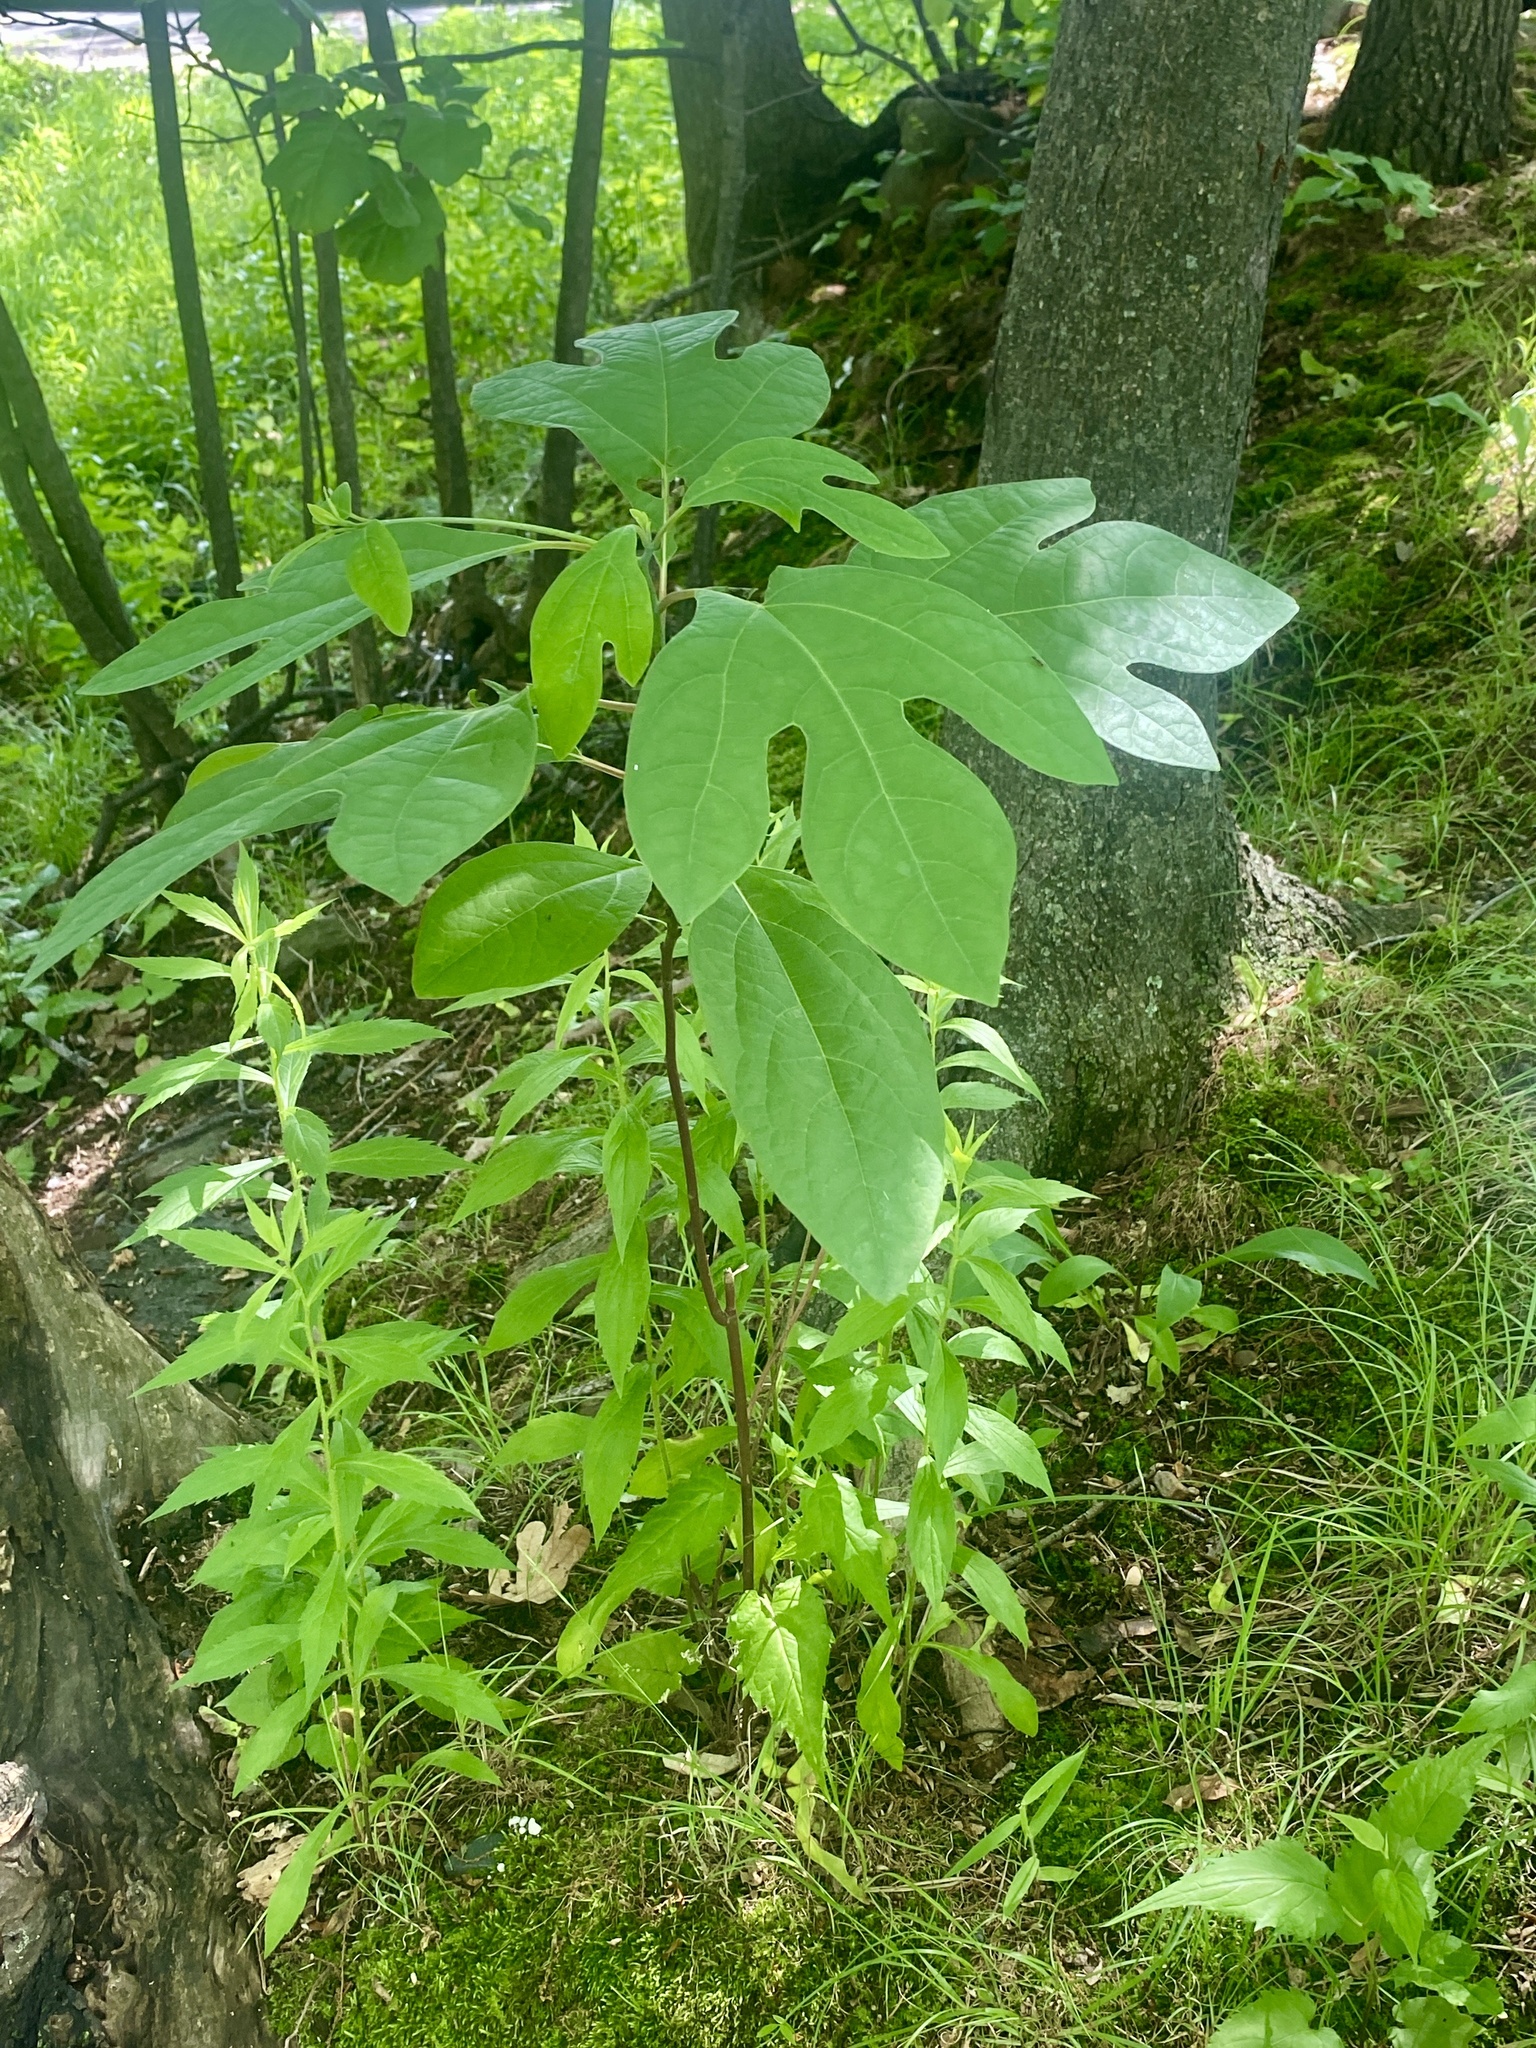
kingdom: Plantae
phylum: Tracheophyta
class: Magnoliopsida
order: Laurales
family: Lauraceae
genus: Sassafras
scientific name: Sassafras albidum
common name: Sassafras
